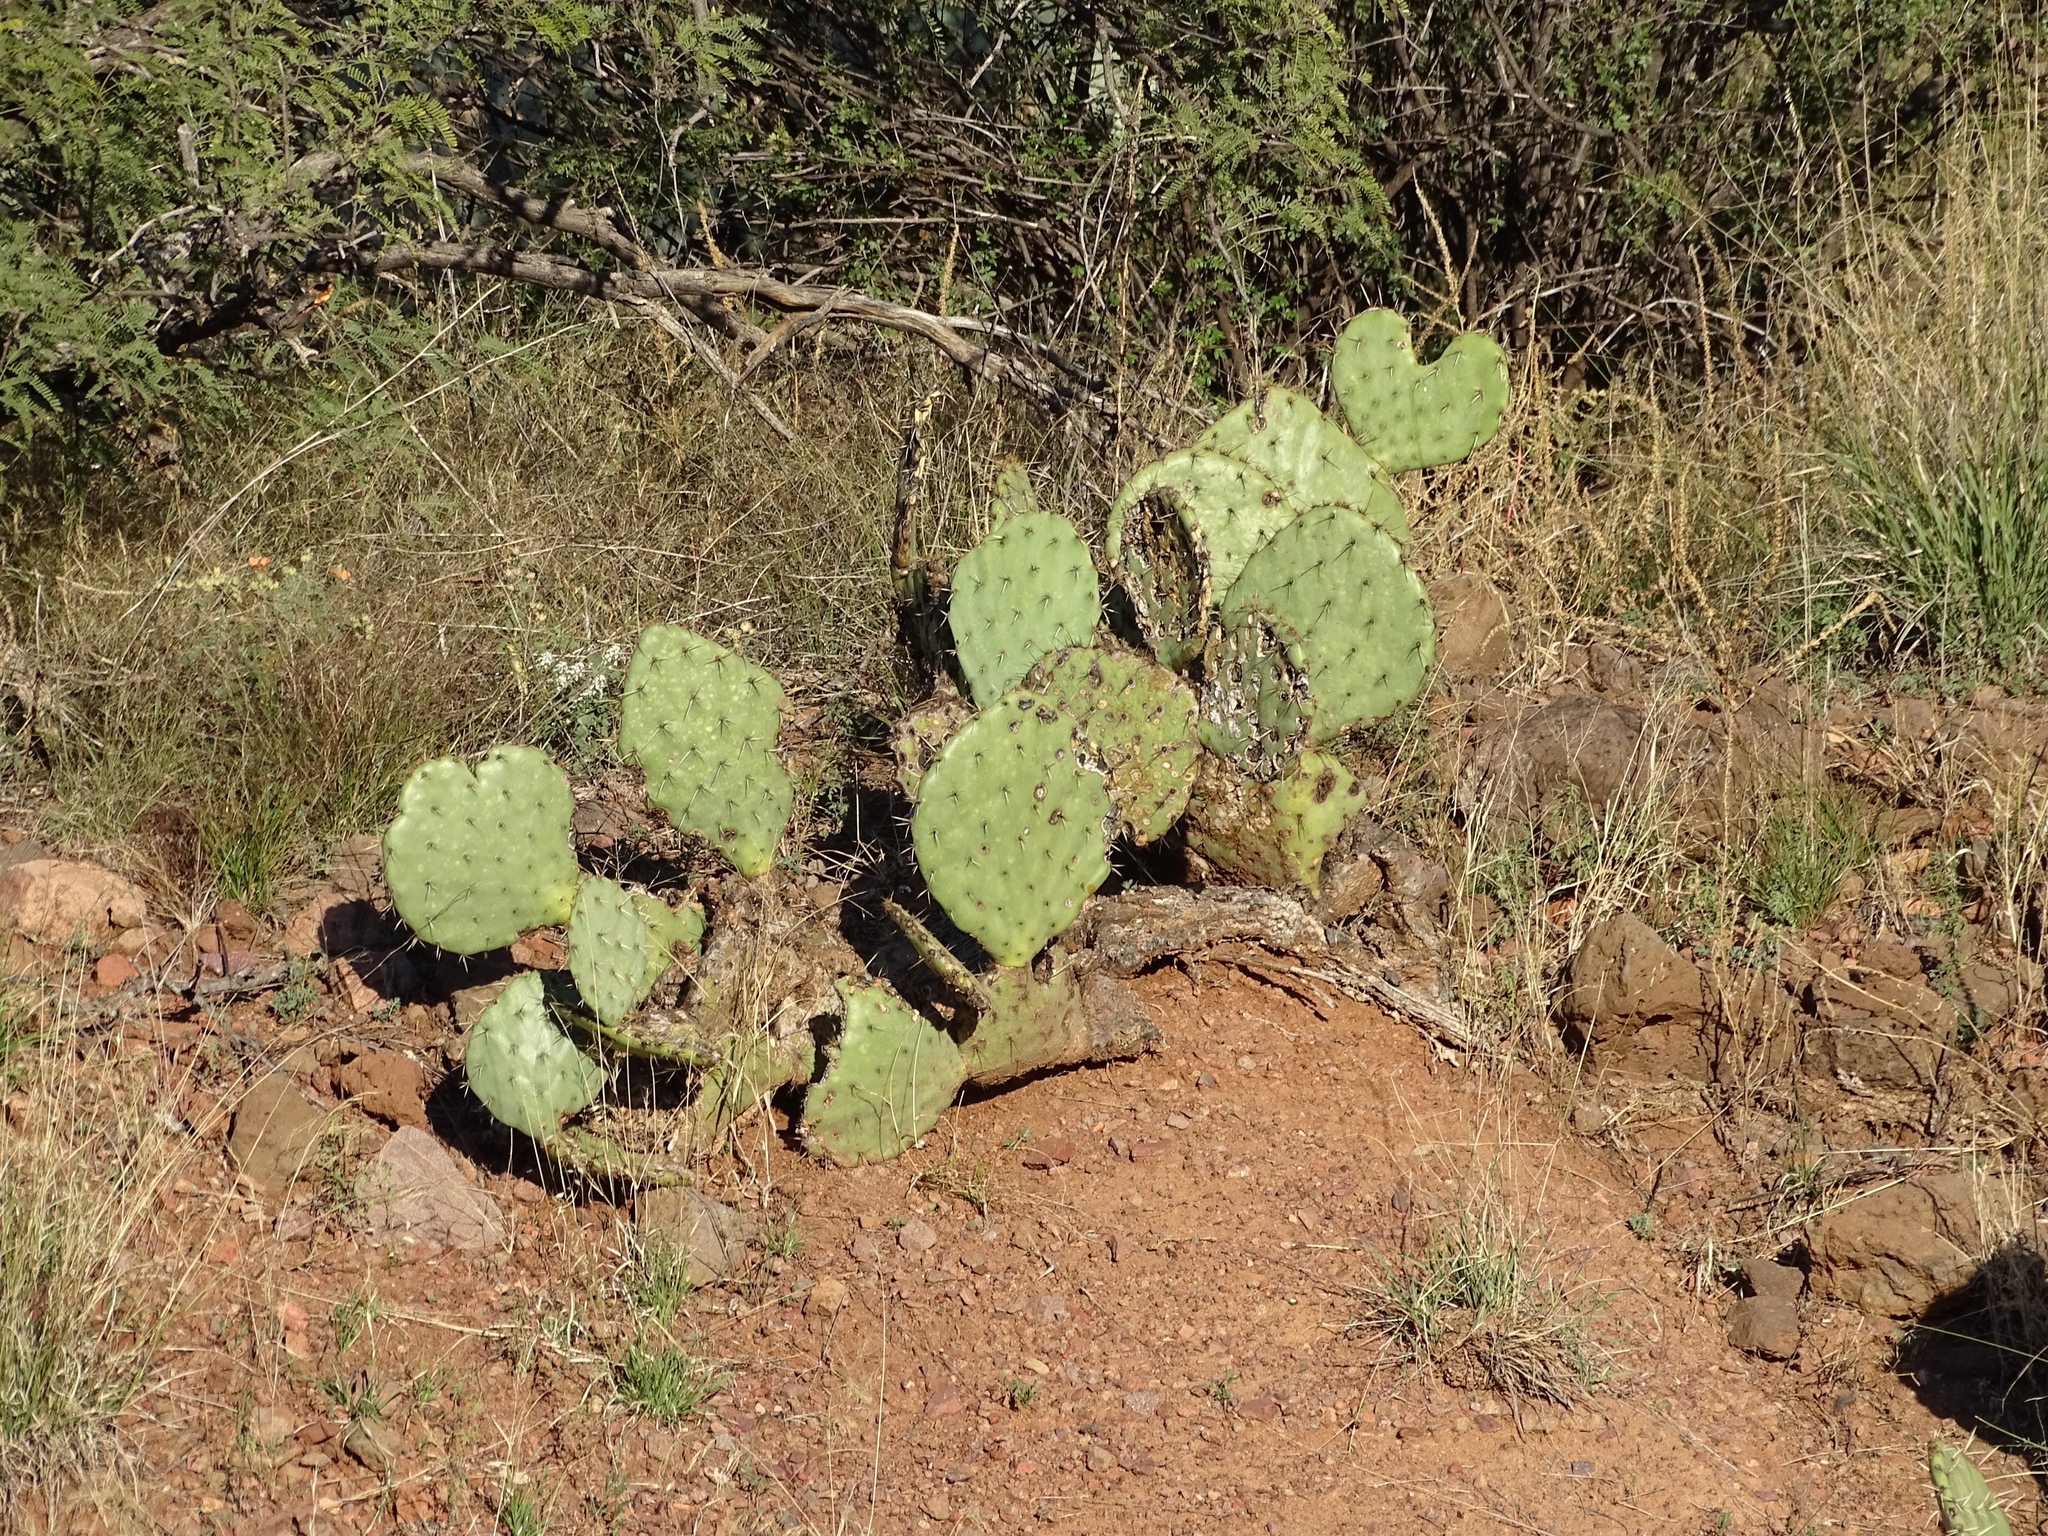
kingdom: Plantae
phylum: Tracheophyta
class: Magnoliopsida
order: Caryophyllales
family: Cactaceae
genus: Opuntia
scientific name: Opuntia engelmannii
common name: Cactus-apple
